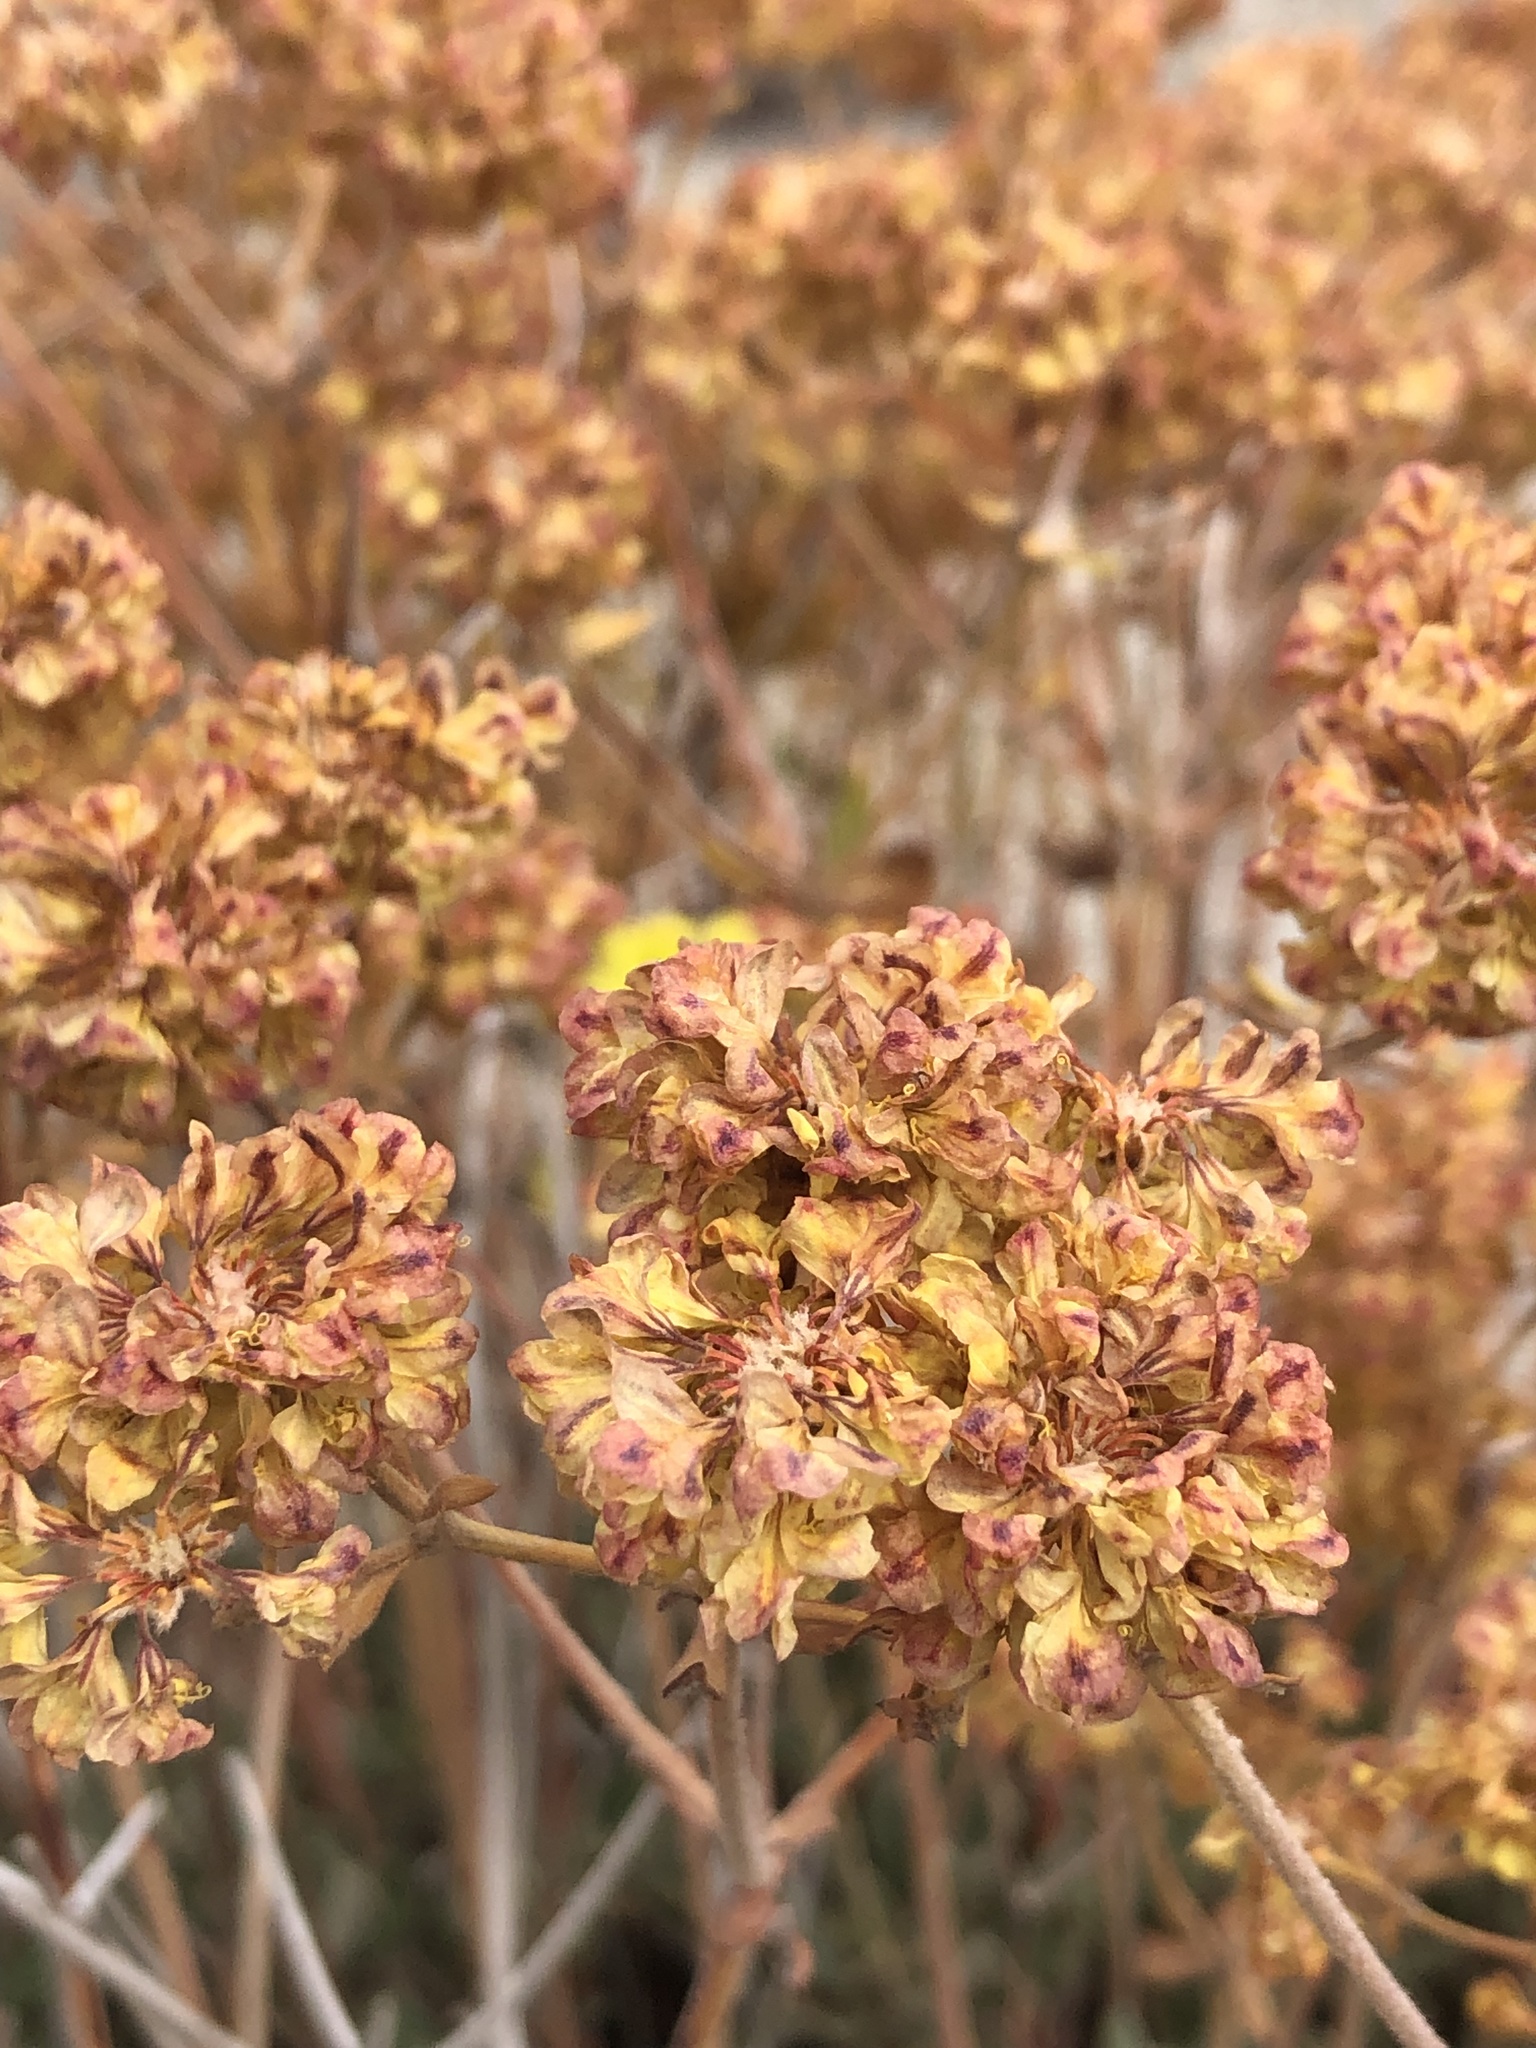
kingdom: Plantae
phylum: Tracheophyta
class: Magnoliopsida
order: Caryophyllales
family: Polygonaceae
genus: Eriogonum
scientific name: Eriogonum umbellatum
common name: Sulfur-buckwheat
